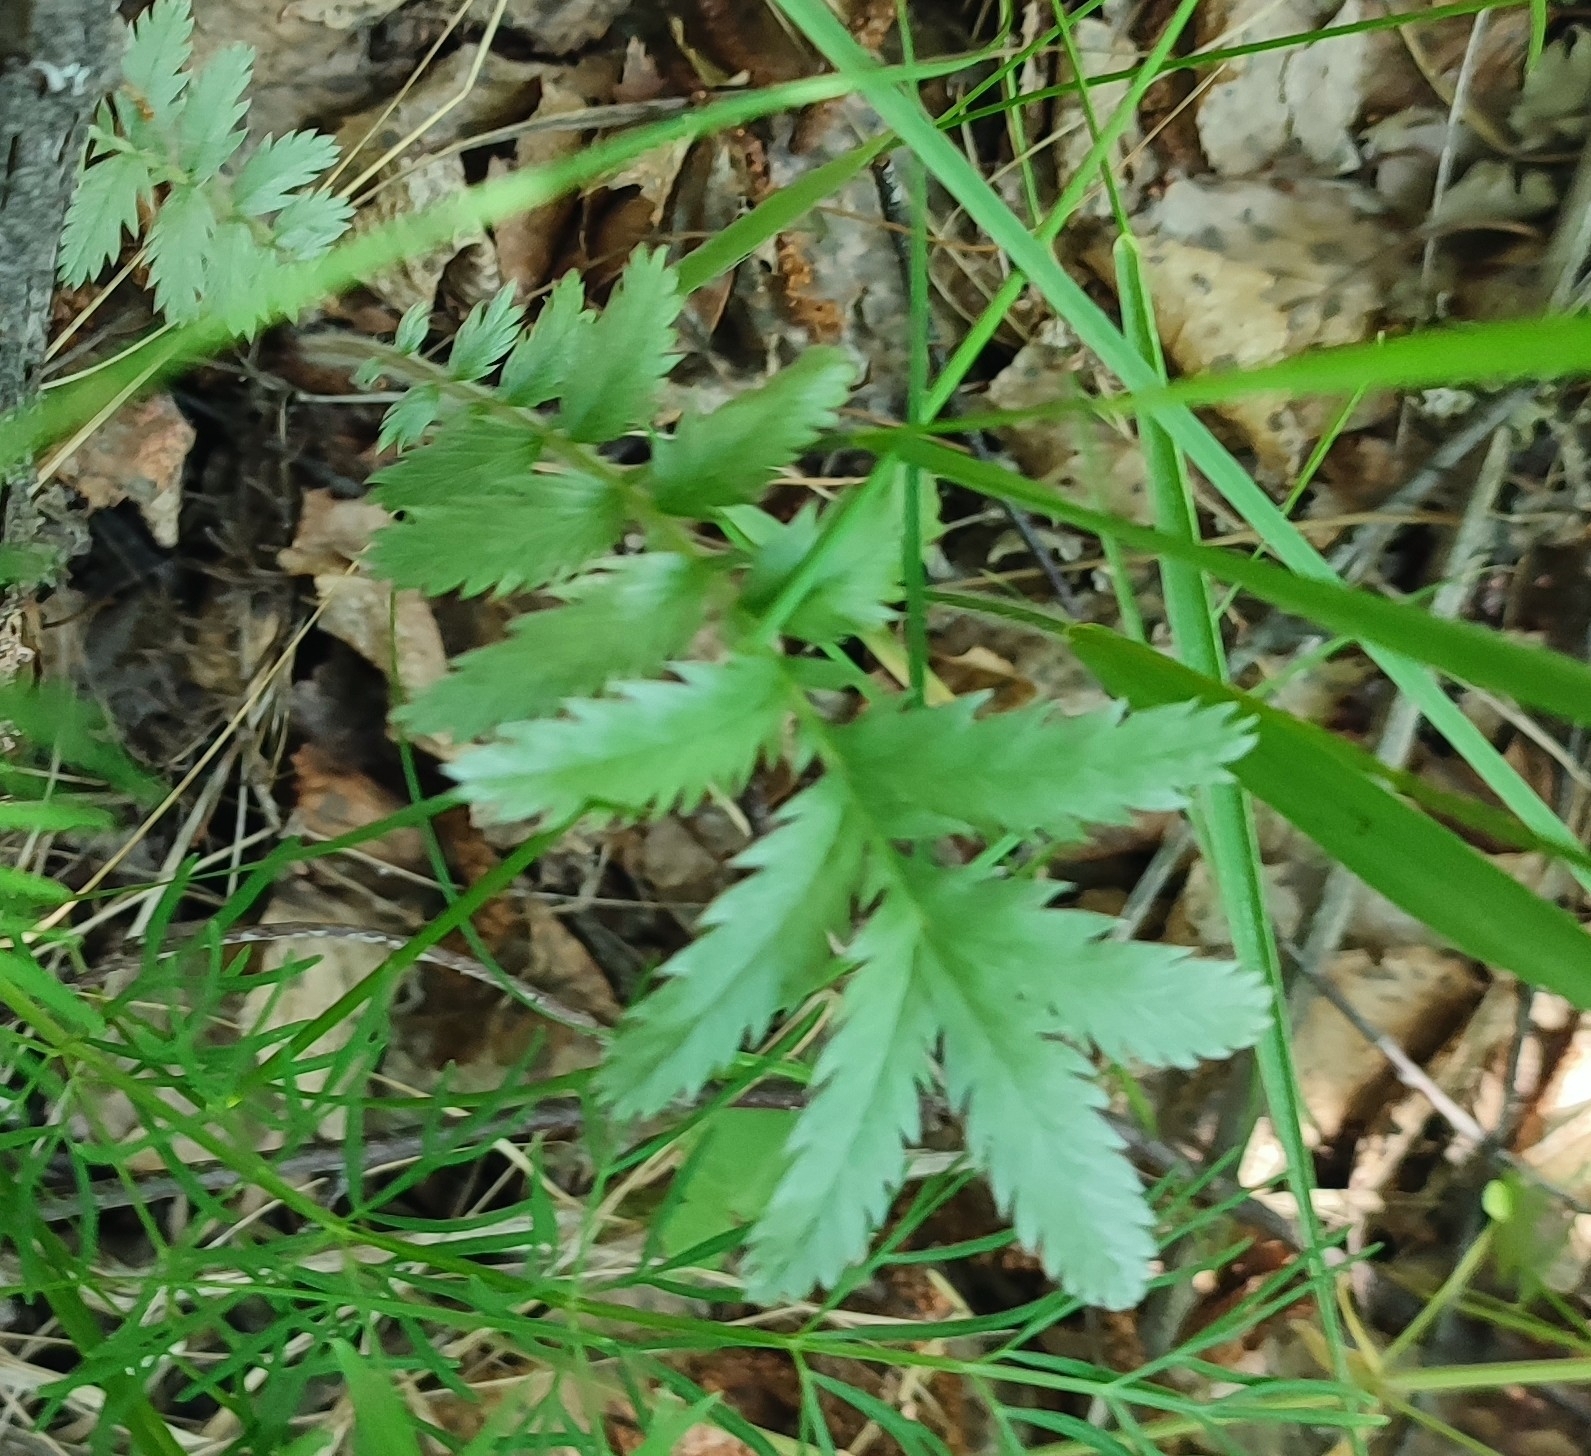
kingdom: Plantae
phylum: Tracheophyta
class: Magnoliopsida
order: Rosales
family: Rosaceae
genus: Argentina
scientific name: Argentina anserina
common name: Common silverweed
